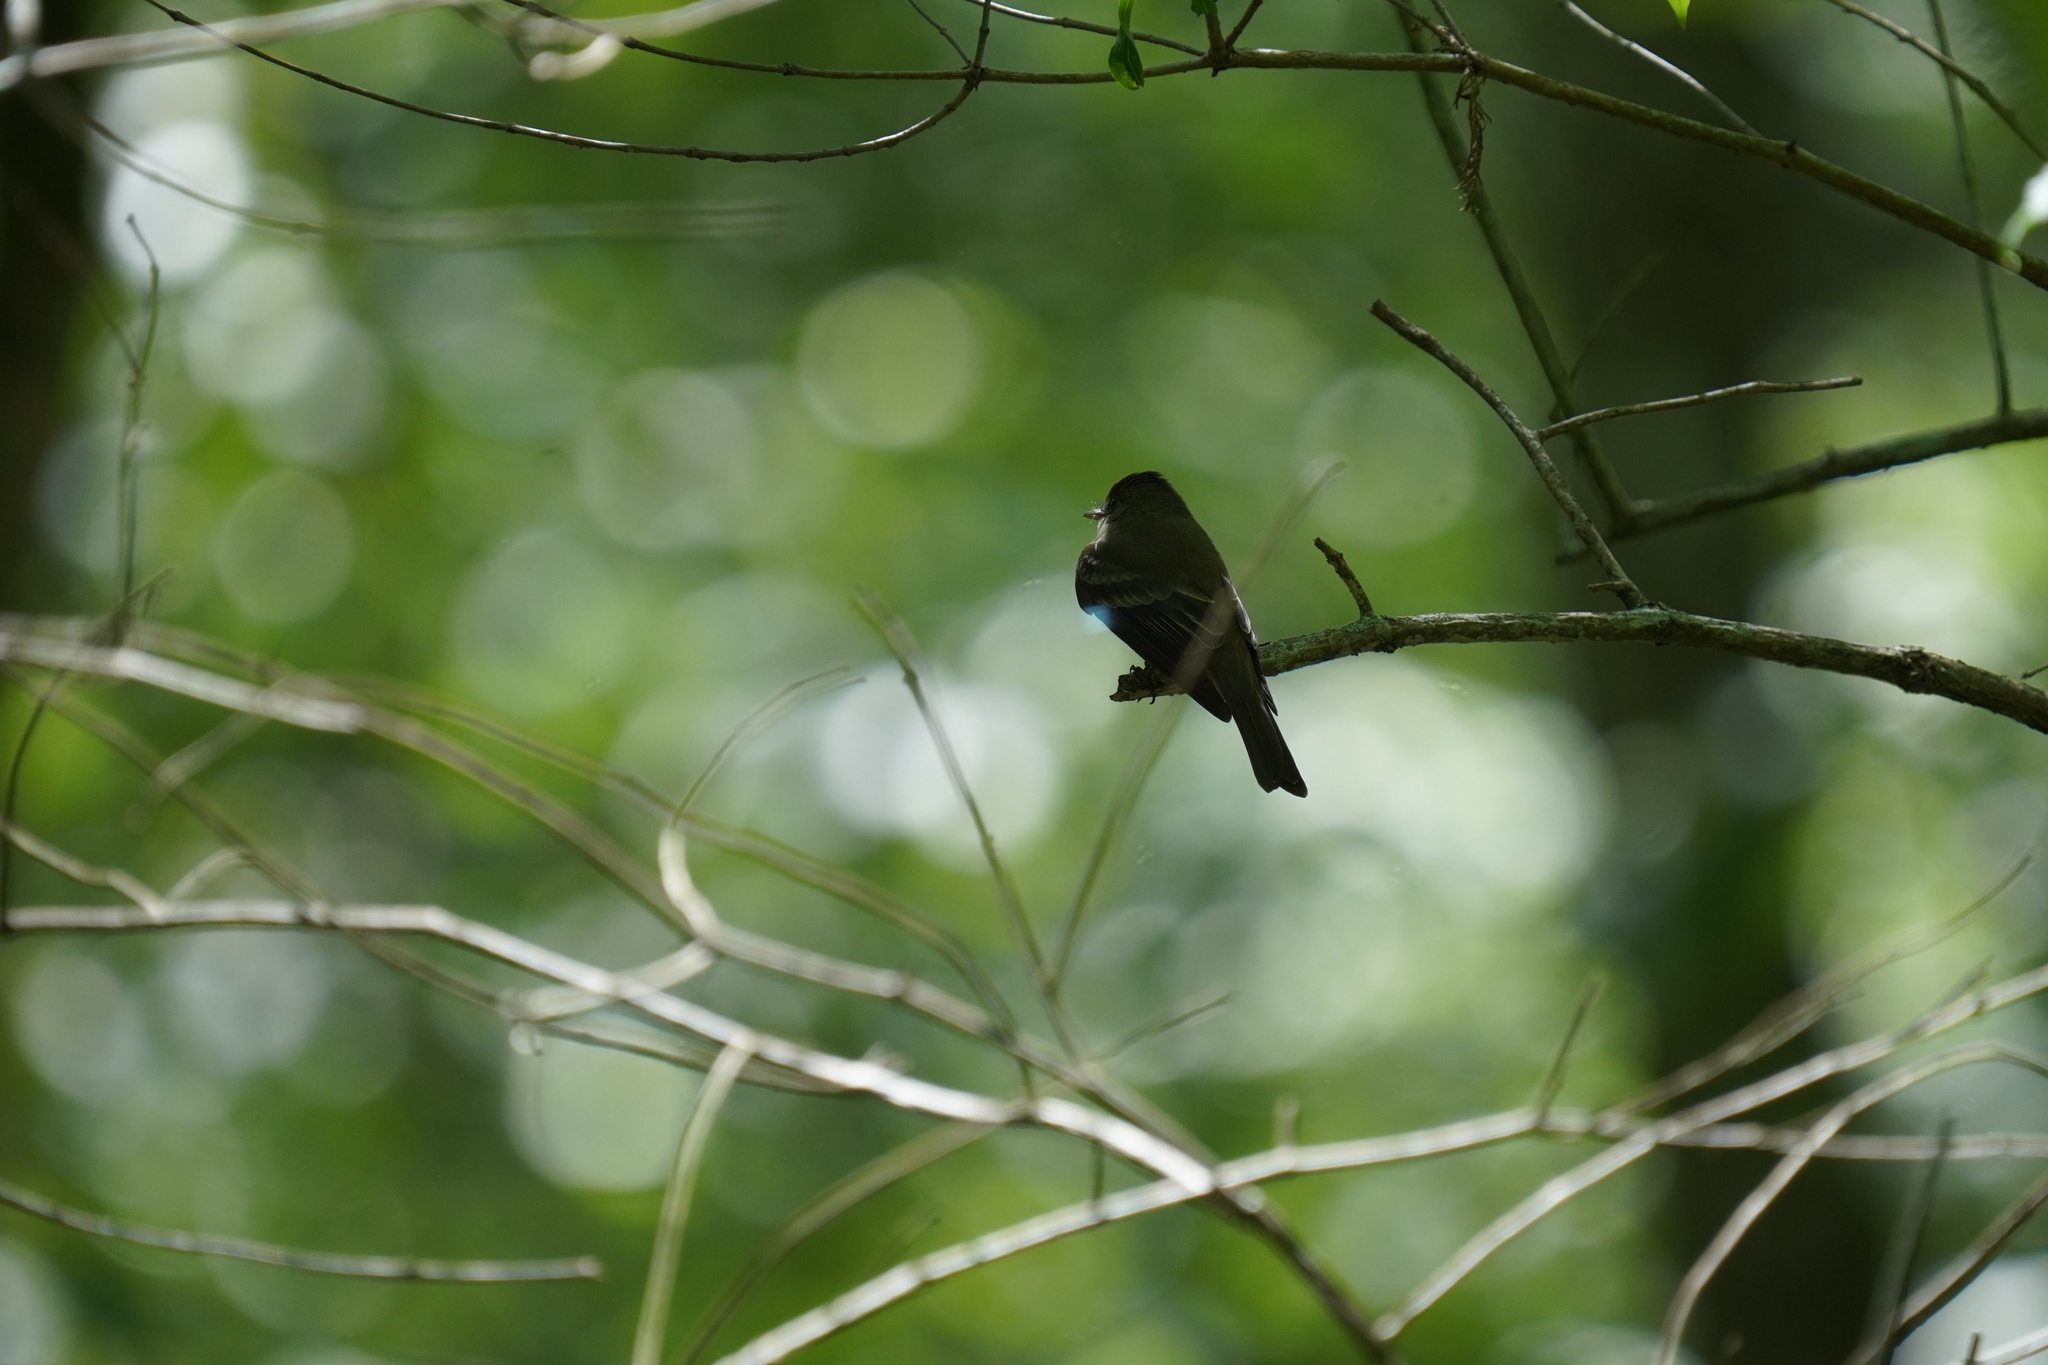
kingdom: Animalia
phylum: Chordata
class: Aves
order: Passeriformes
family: Tyrannidae
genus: Contopus
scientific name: Contopus virens
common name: Eastern wood-pewee
